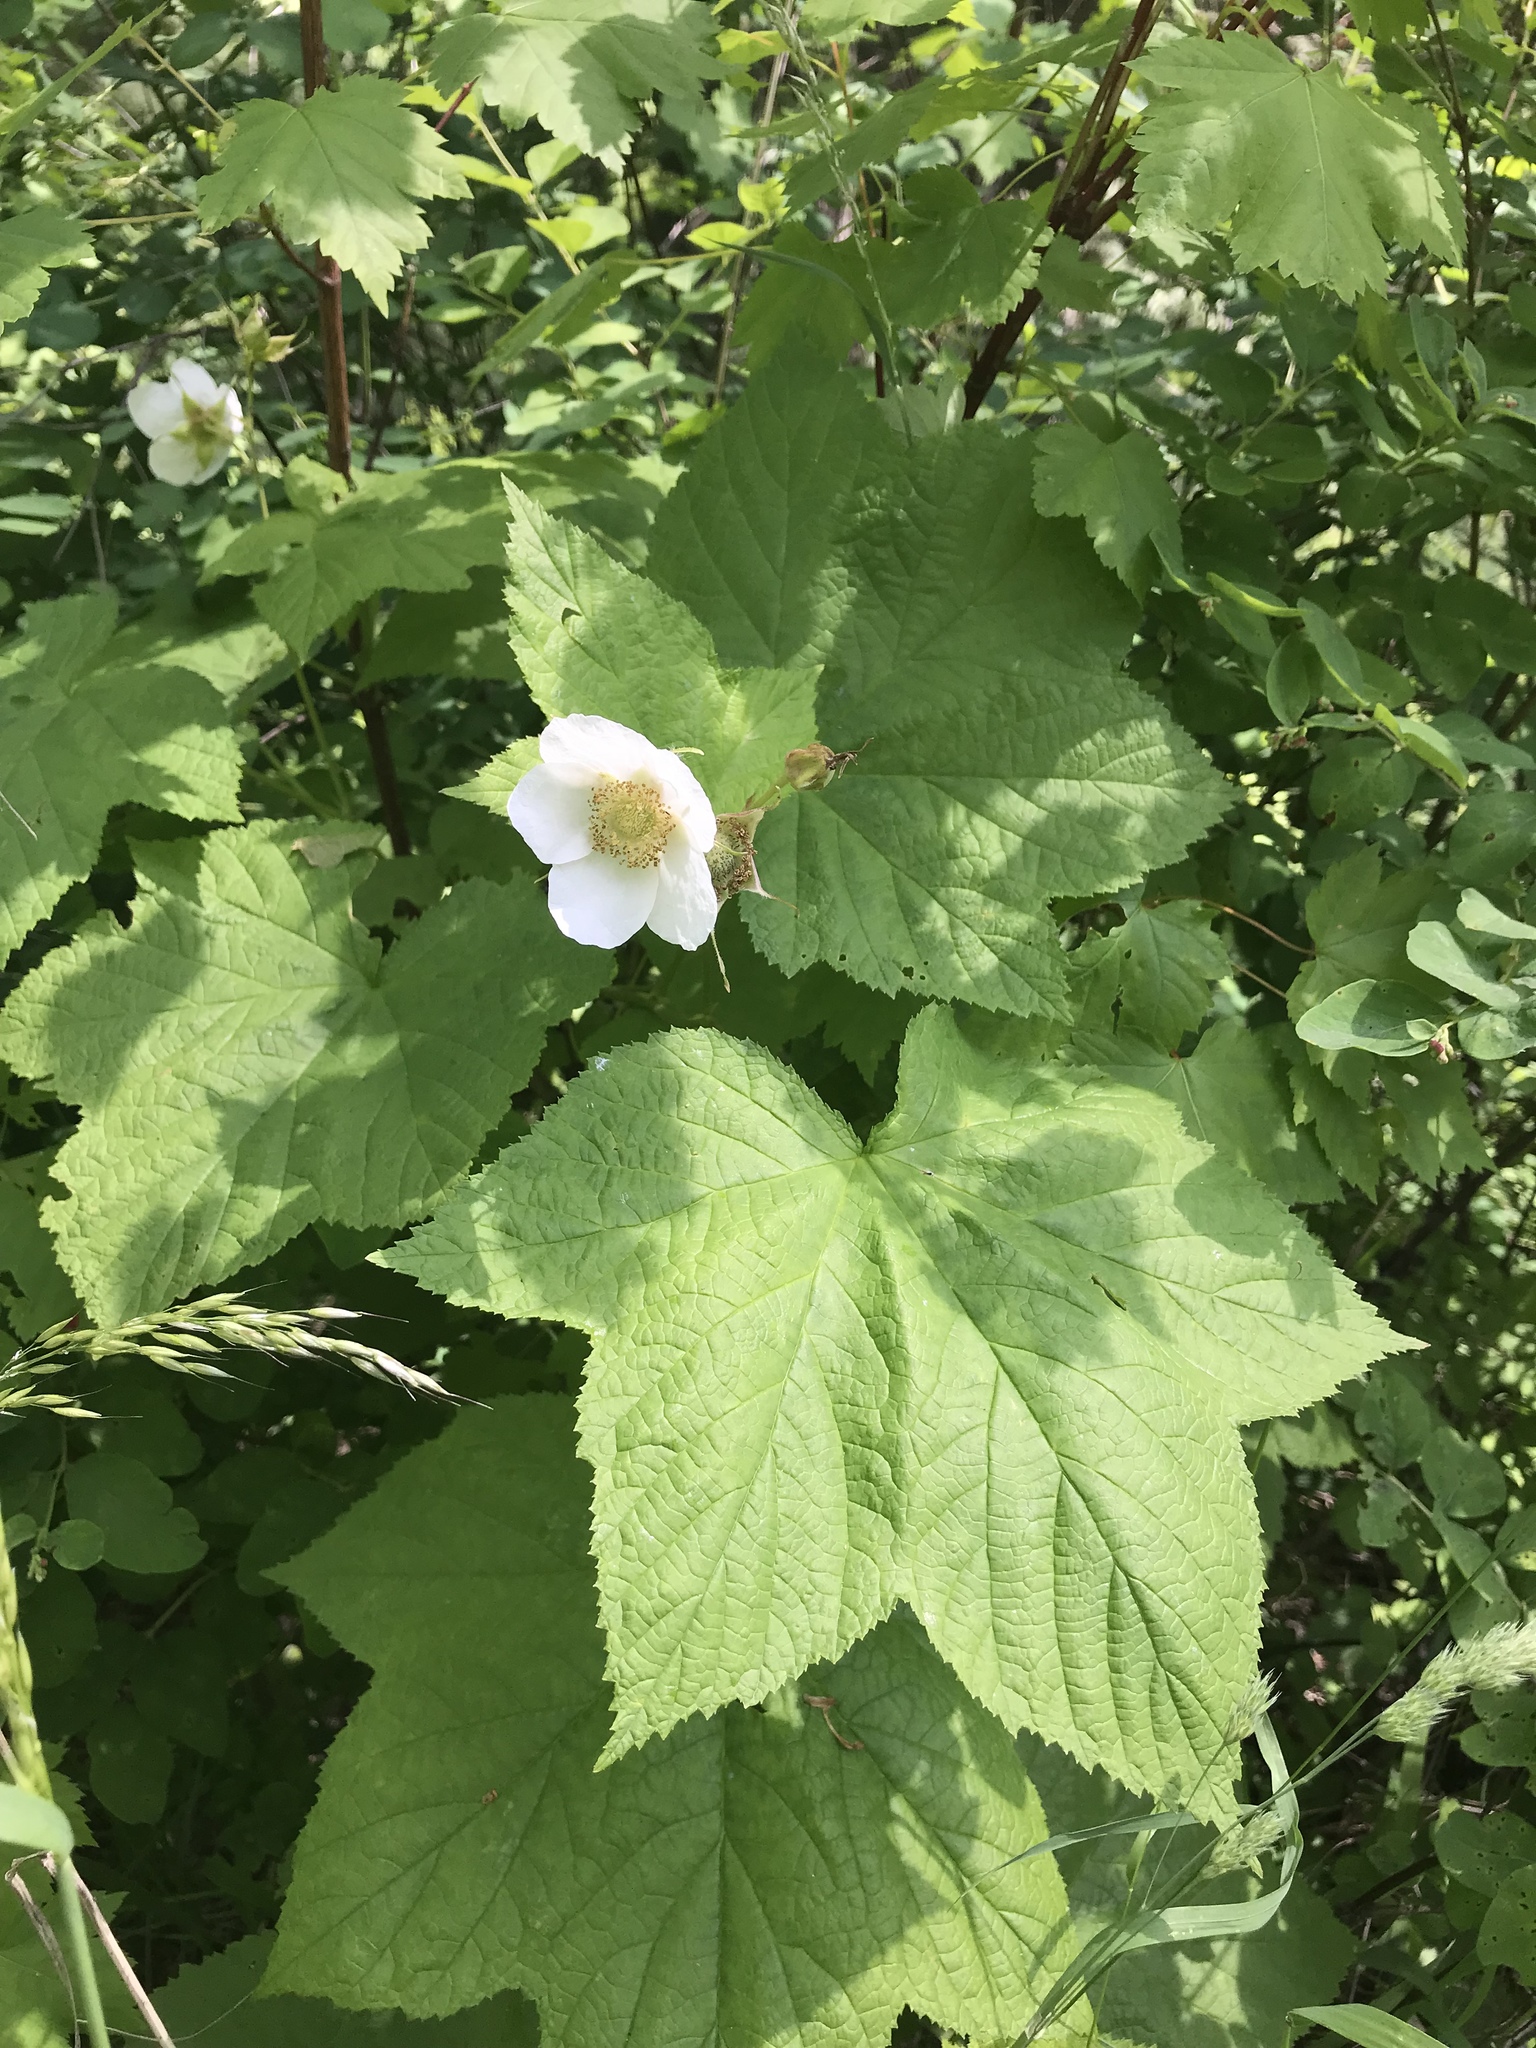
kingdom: Plantae
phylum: Tracheophyta
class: Magnoliopsida
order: Rosales
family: Rosaceae
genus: Rubus
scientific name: Rubus parviflorus
